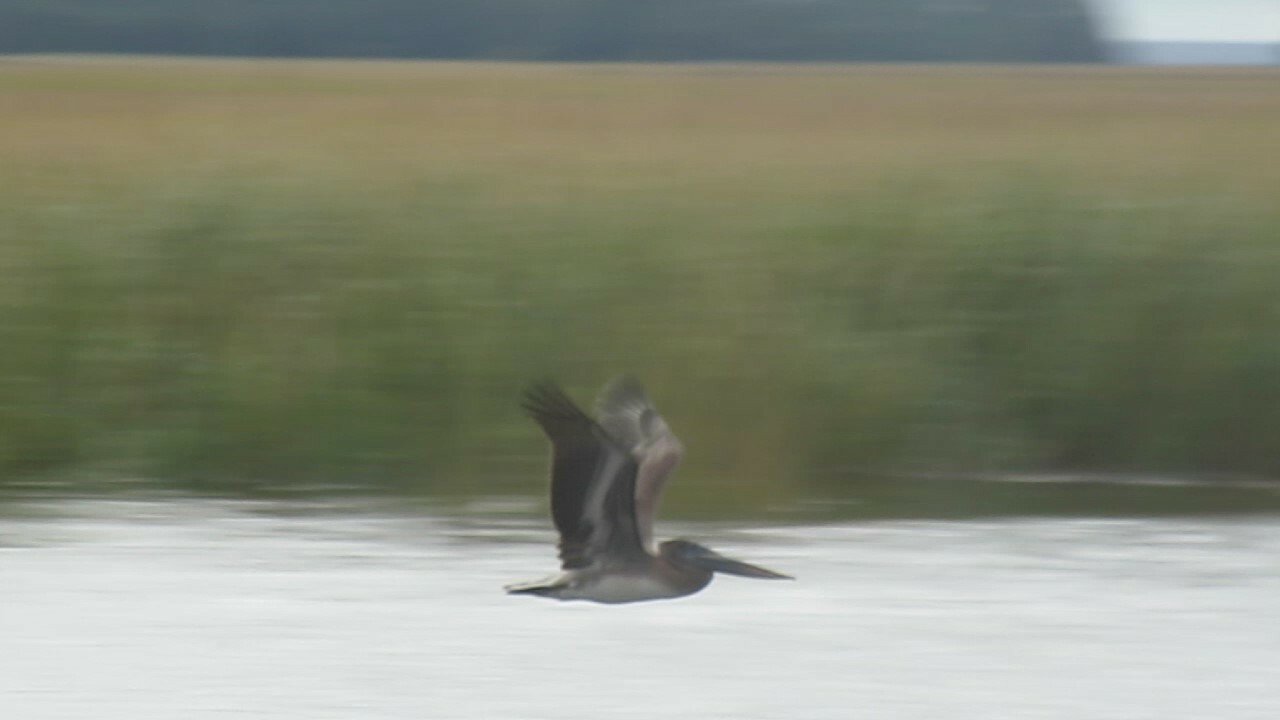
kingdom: Animalia
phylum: Chordata
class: Aves
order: Pelecaniformes
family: Pelecanidae
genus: Pelecanus
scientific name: Pelecanus occidentalis
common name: Brown pelican
